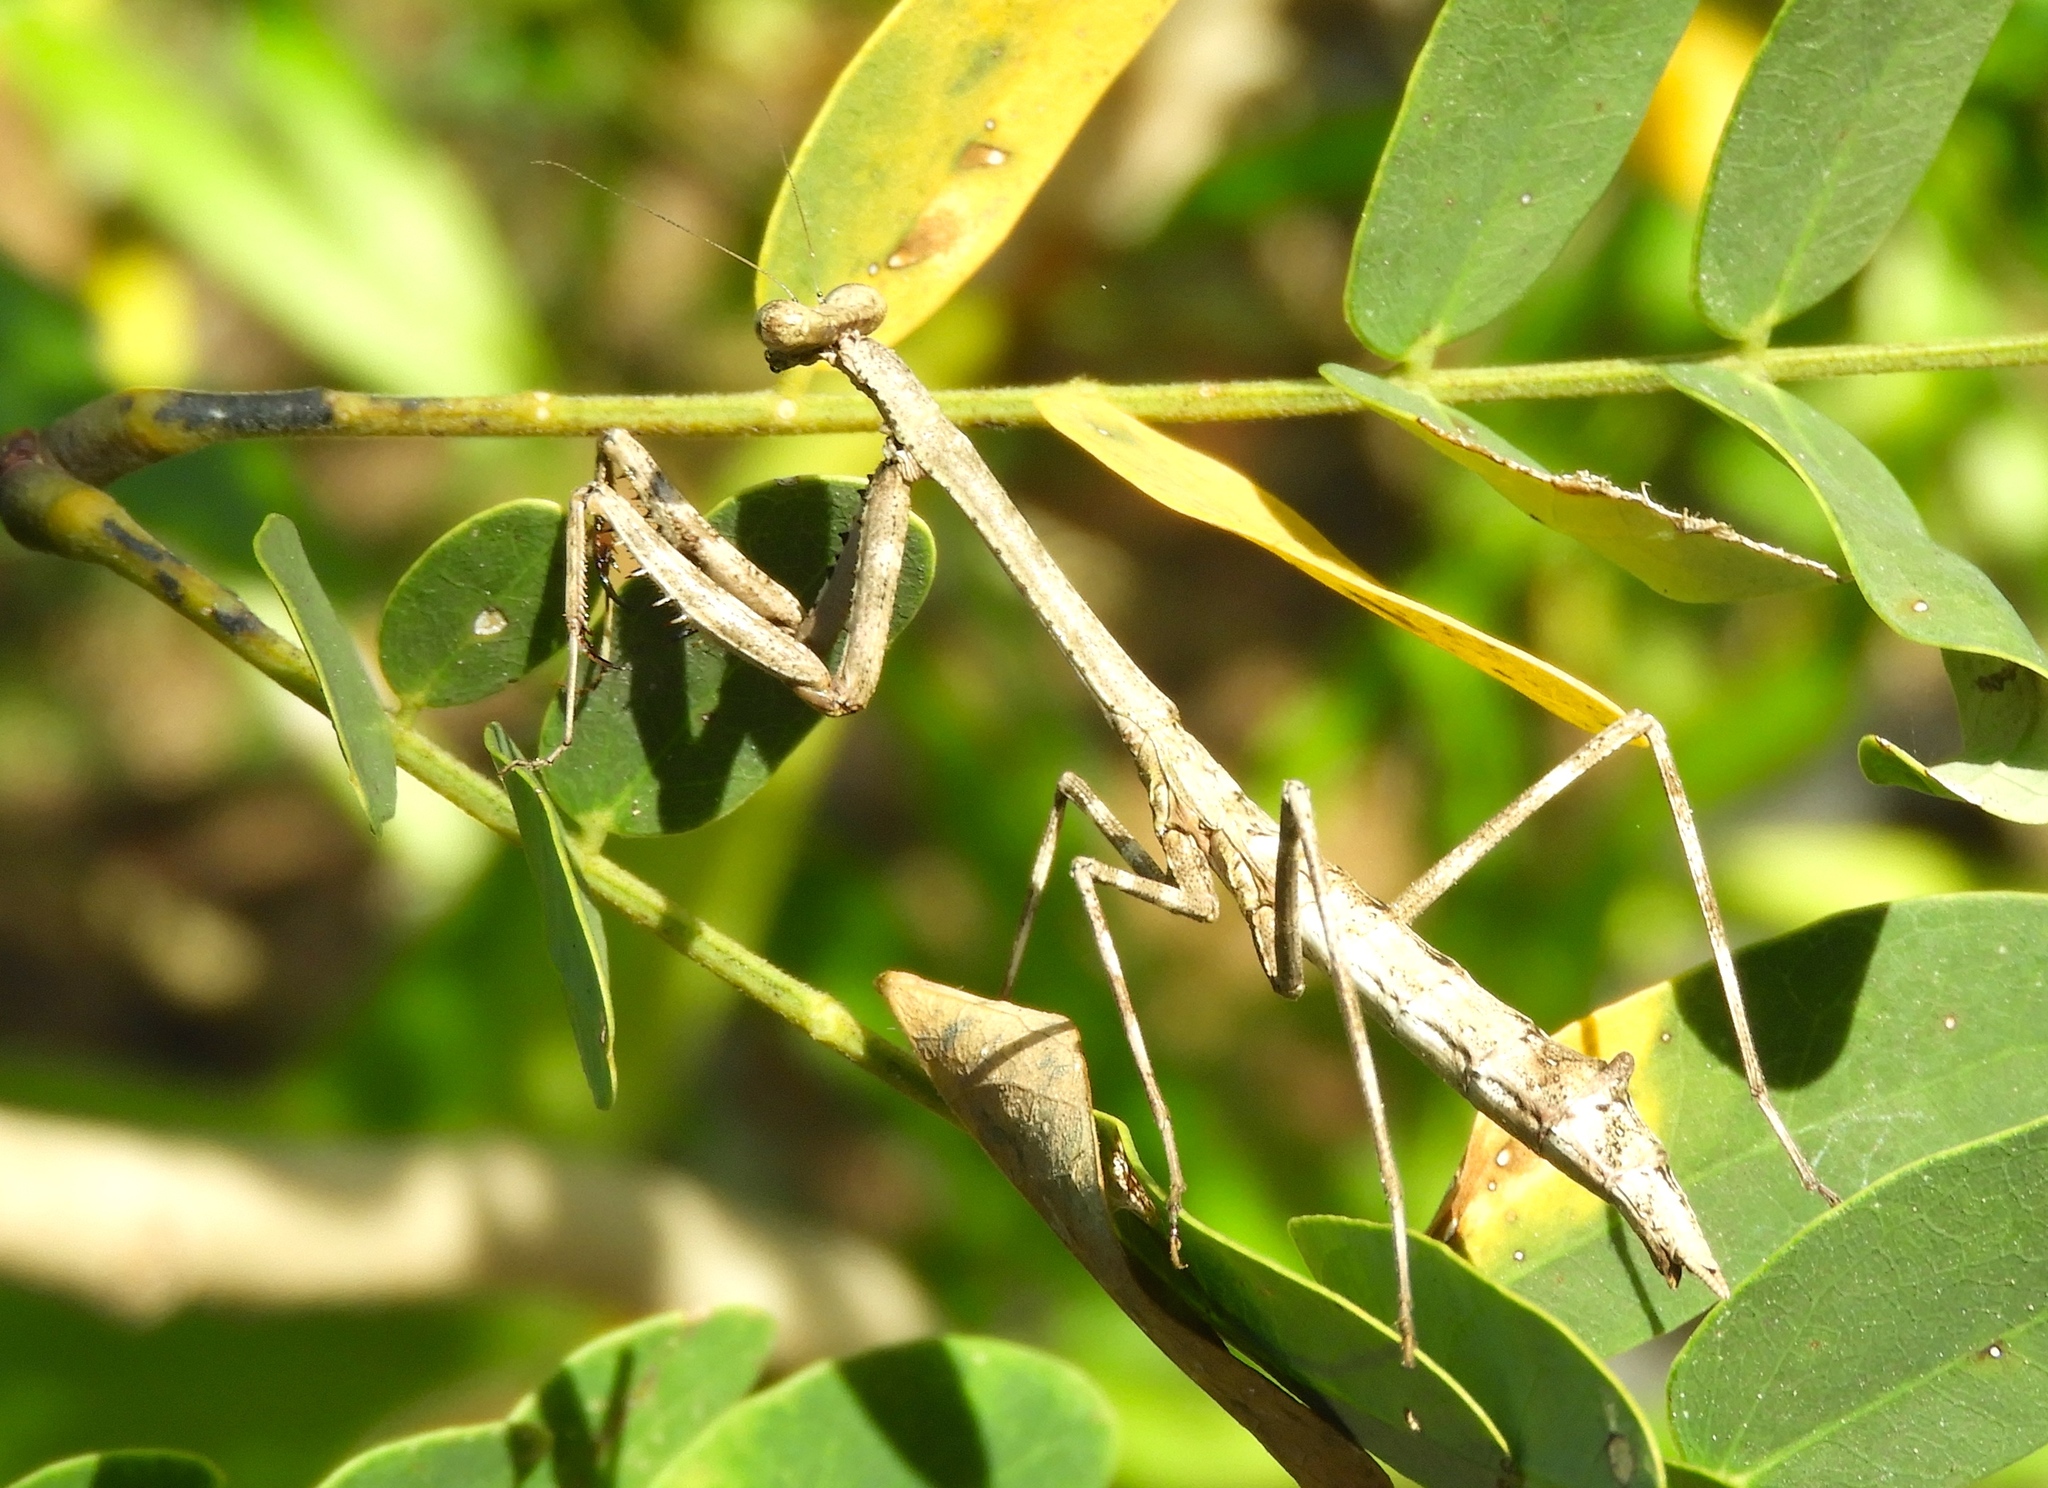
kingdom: Animalia
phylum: Arthropoda
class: Insecta
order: Mantodea
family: Mantidae
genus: Stagmomantis
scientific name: Stagmomantis carolina
